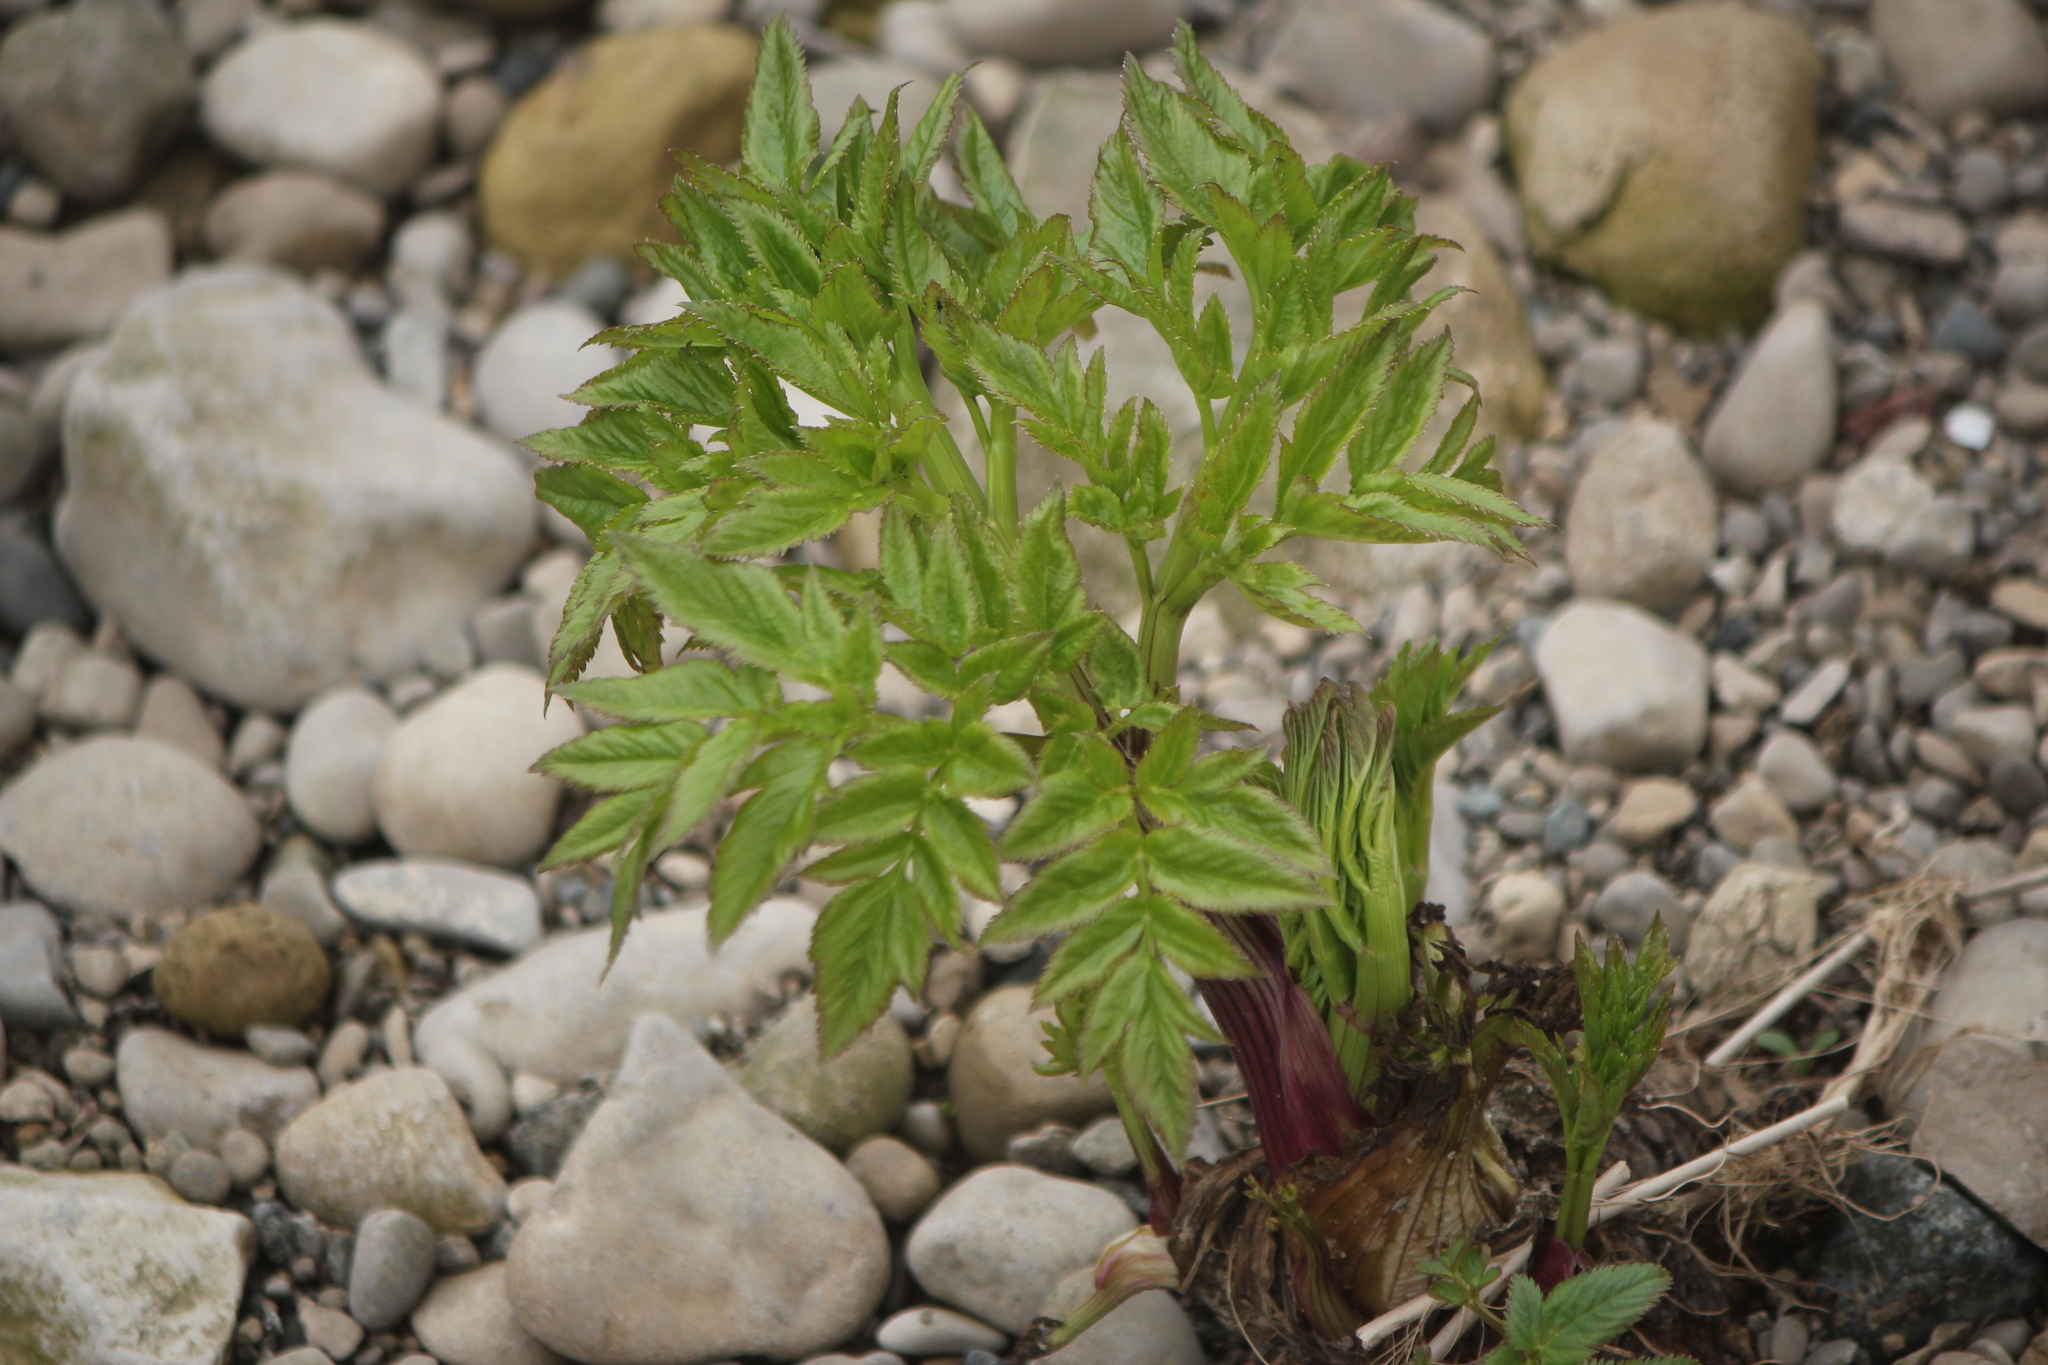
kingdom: Plantae
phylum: Tracheophyta
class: Magnoliopsida
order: Apiales
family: Apiaceae
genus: Angelica
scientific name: Angelica atropurpurea
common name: Great angelica
